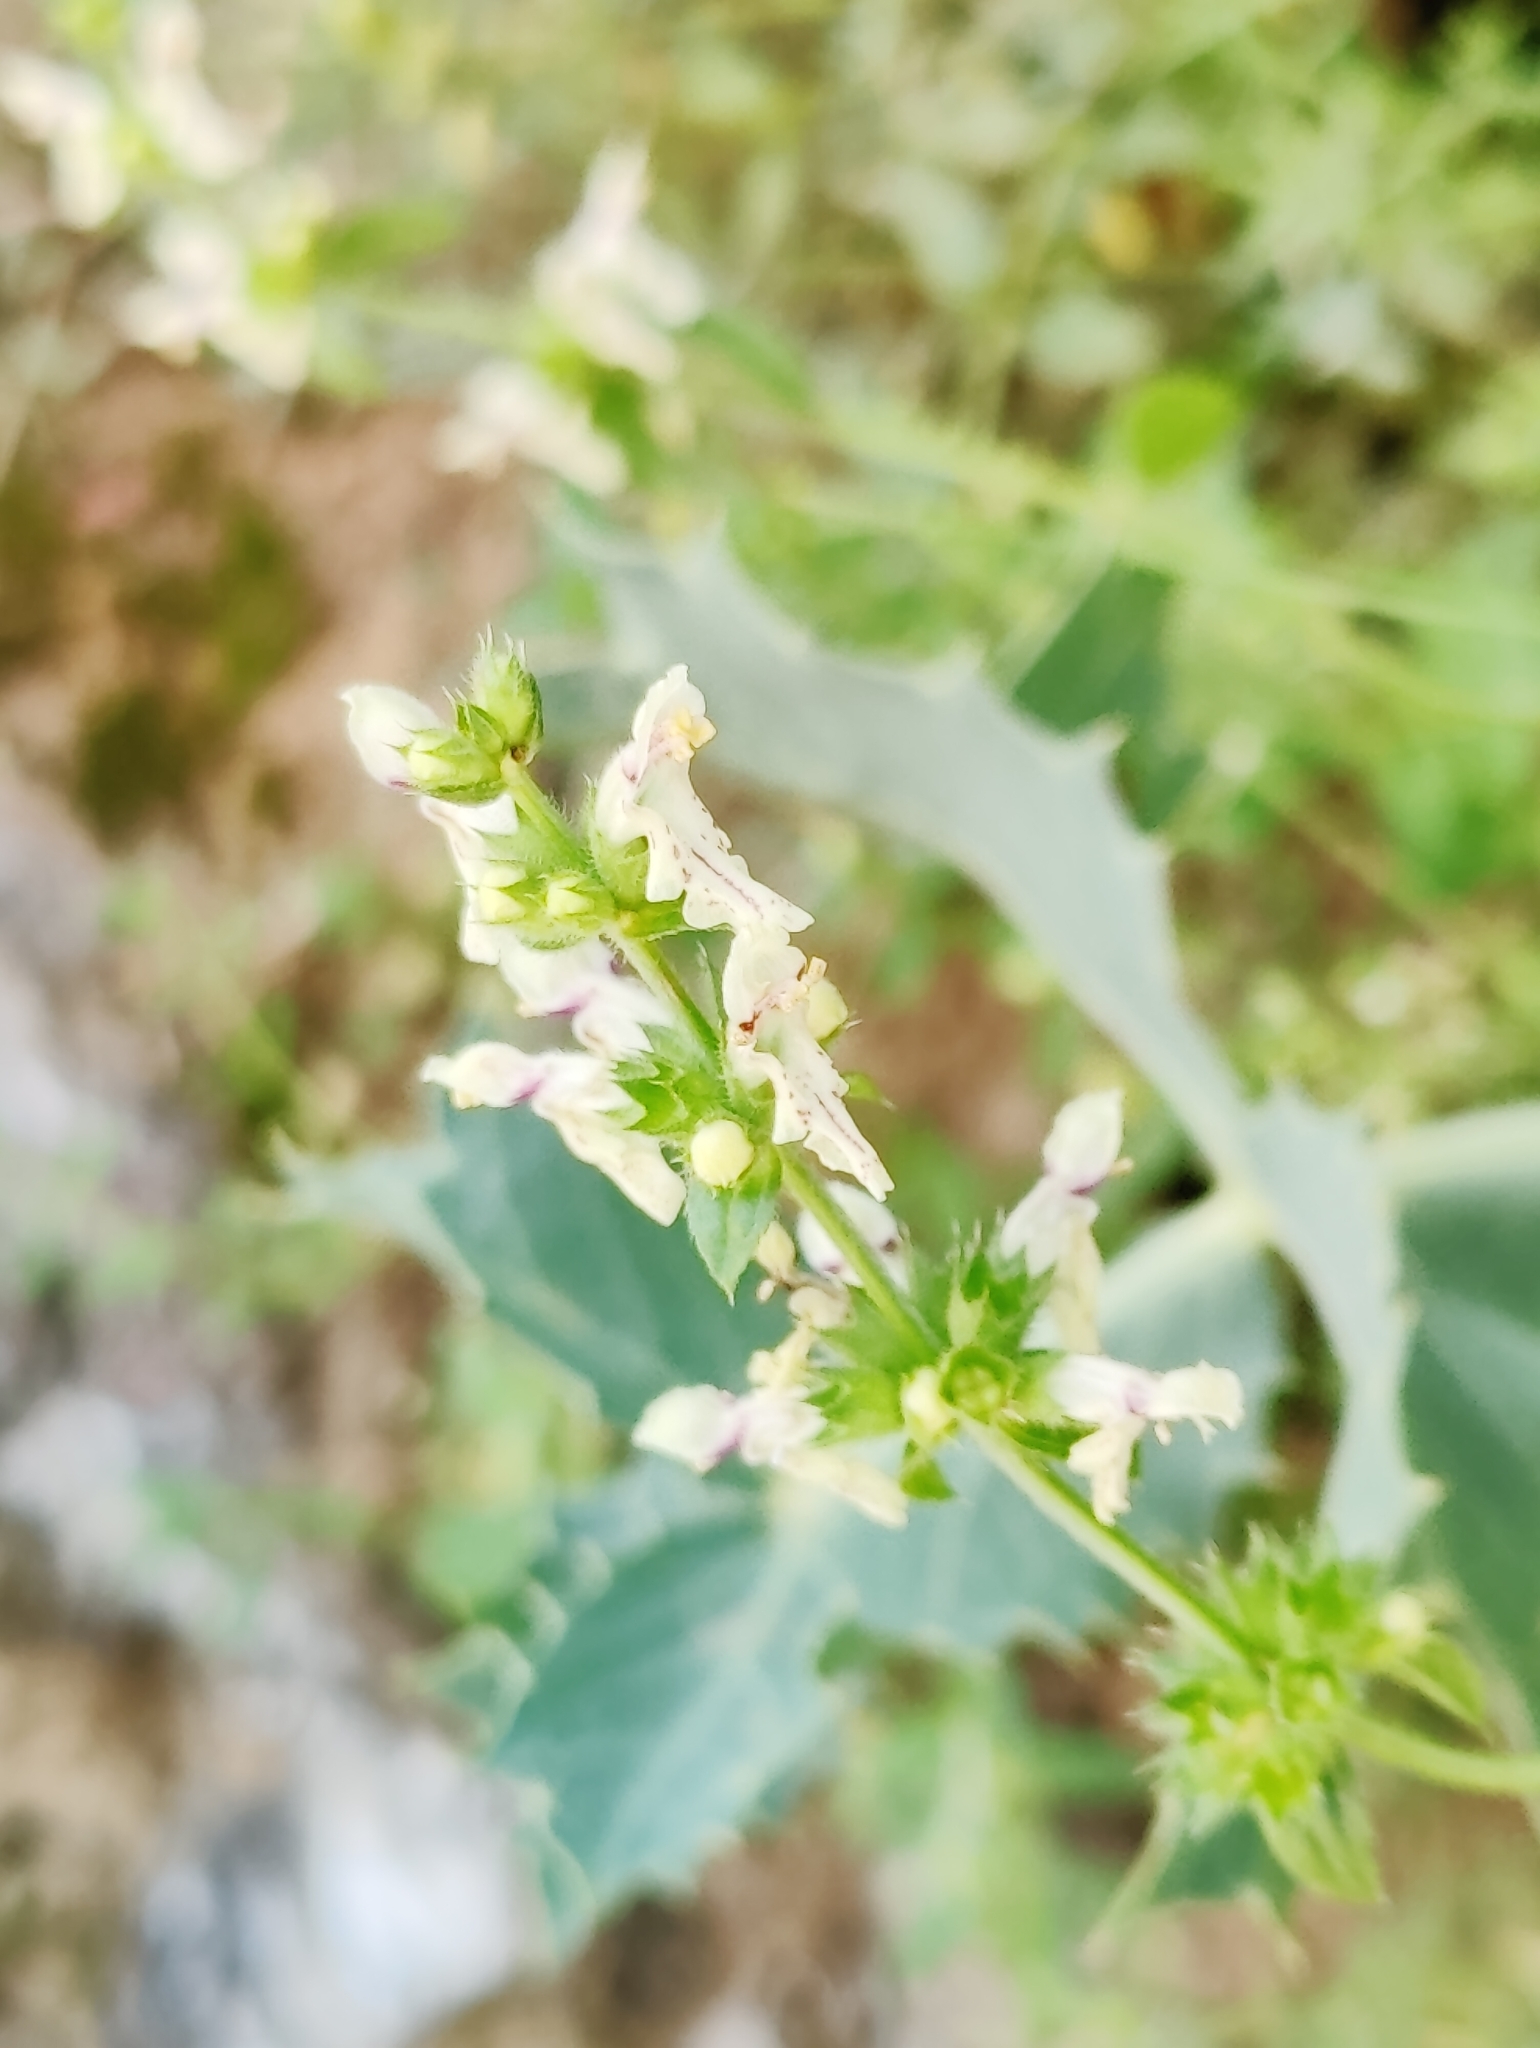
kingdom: Plantae
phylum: Tracheophyta
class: Magnoliopsida
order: Lamiales
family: Lamiaceae
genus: Stachys
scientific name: Stachys recta
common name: Perennial yellow-woundwort
